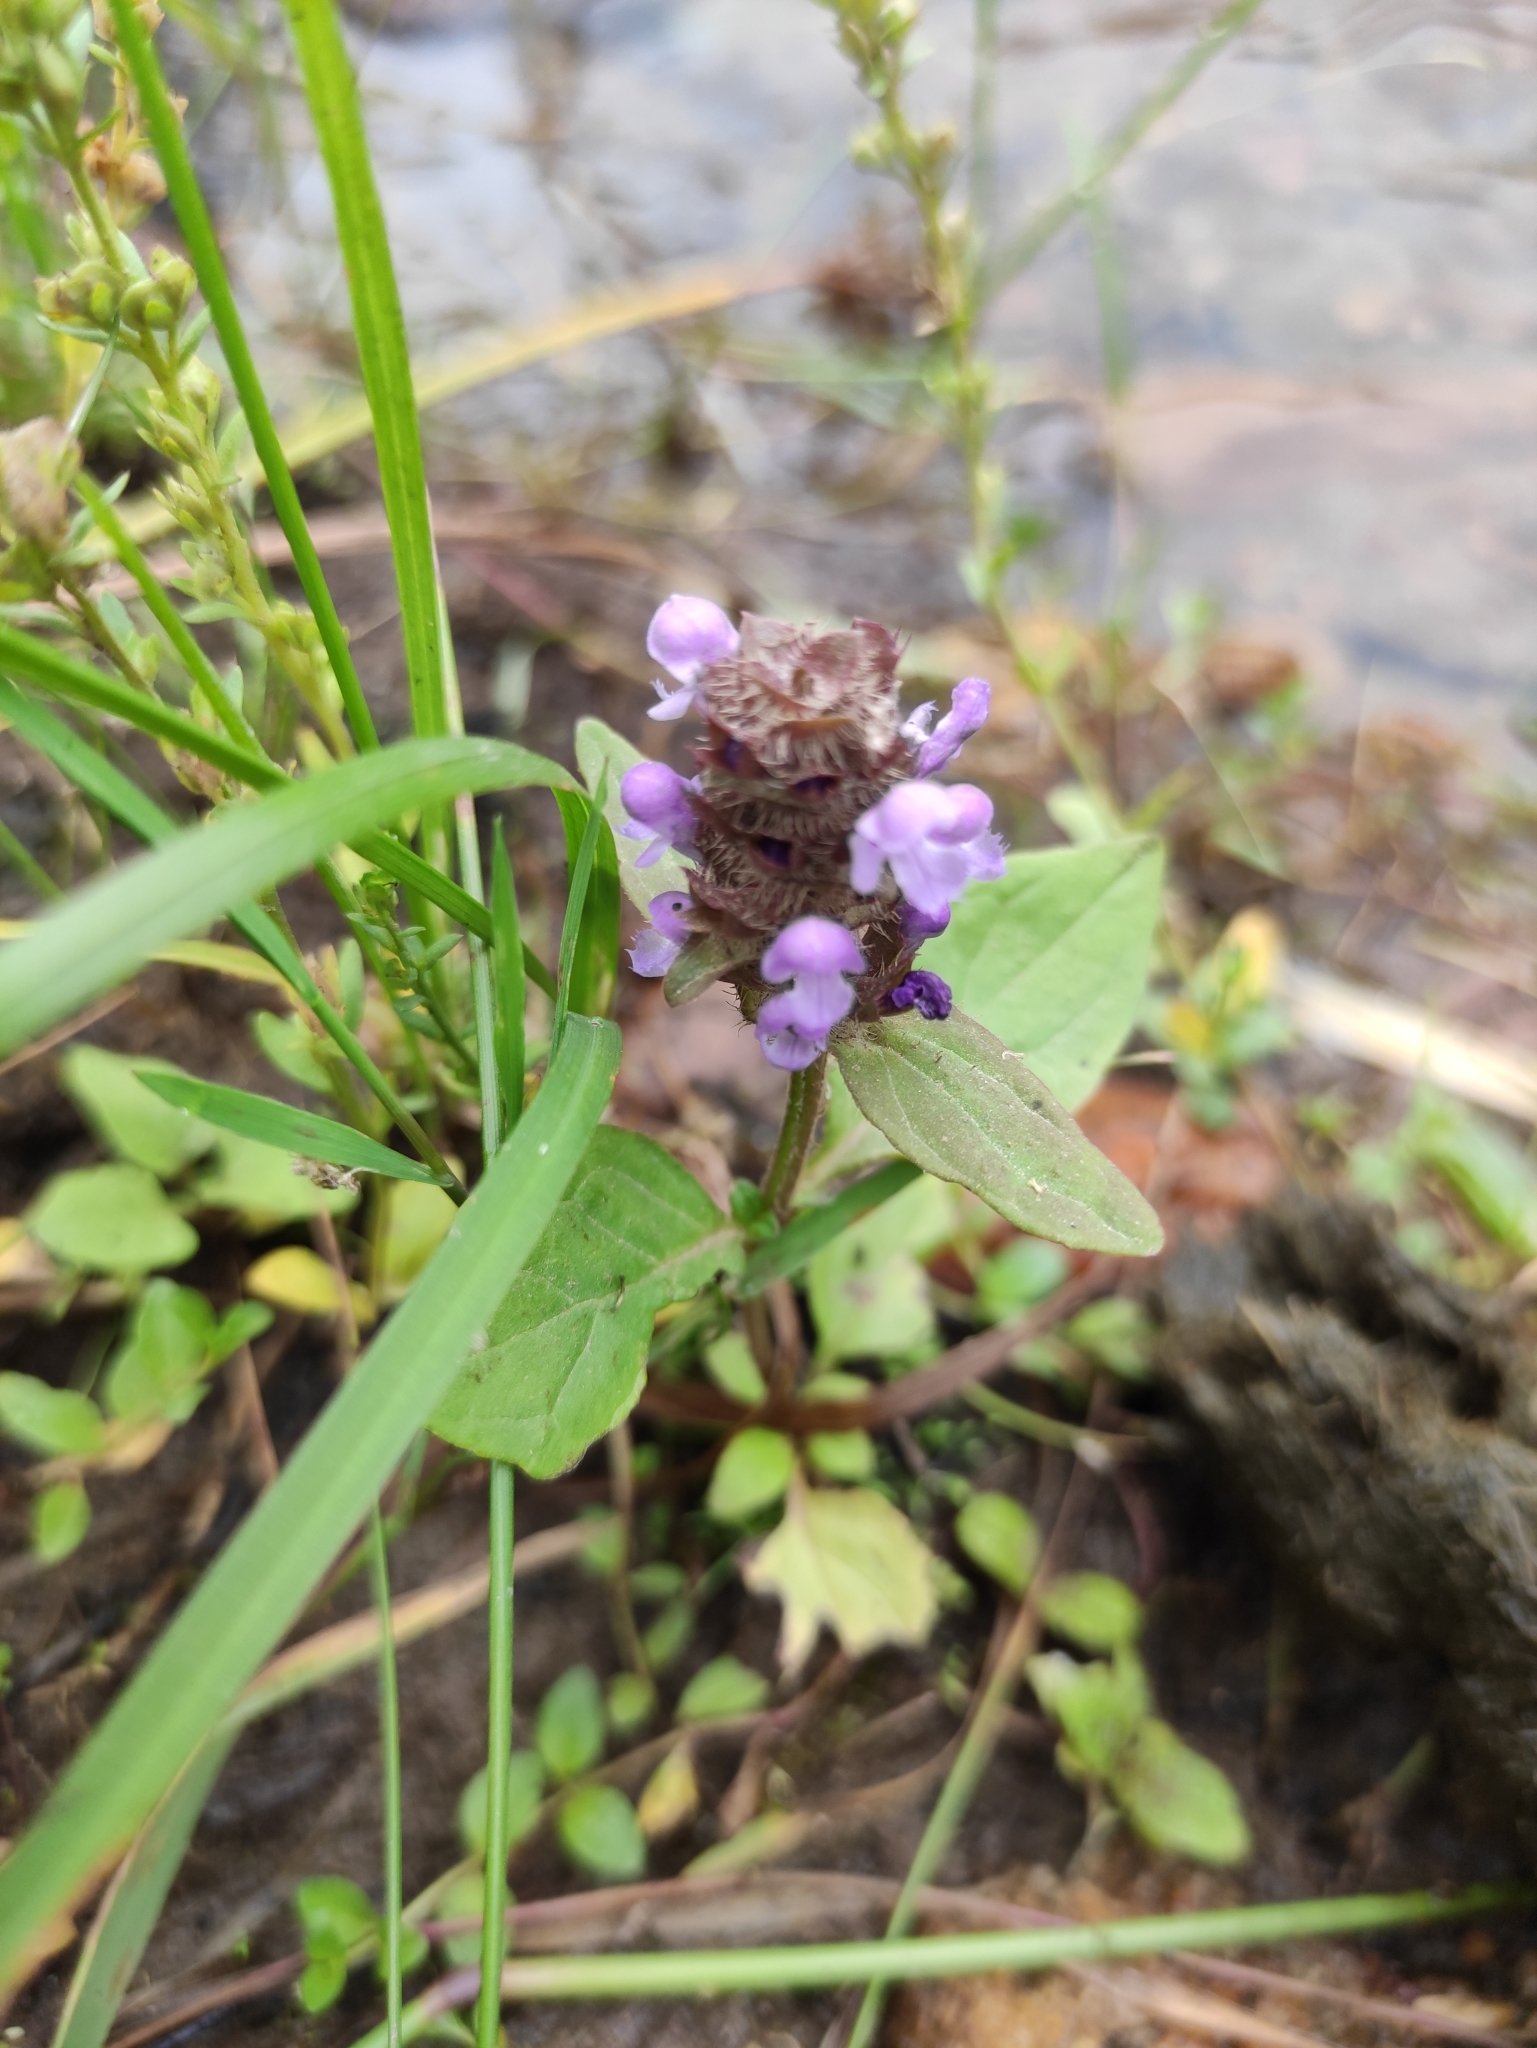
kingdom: Plantae
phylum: Tracheophyta
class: Magnoliopsida
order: Lamiales
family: Lamiaceae
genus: Prunella
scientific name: Prunella vulgaris
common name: Heal-all
